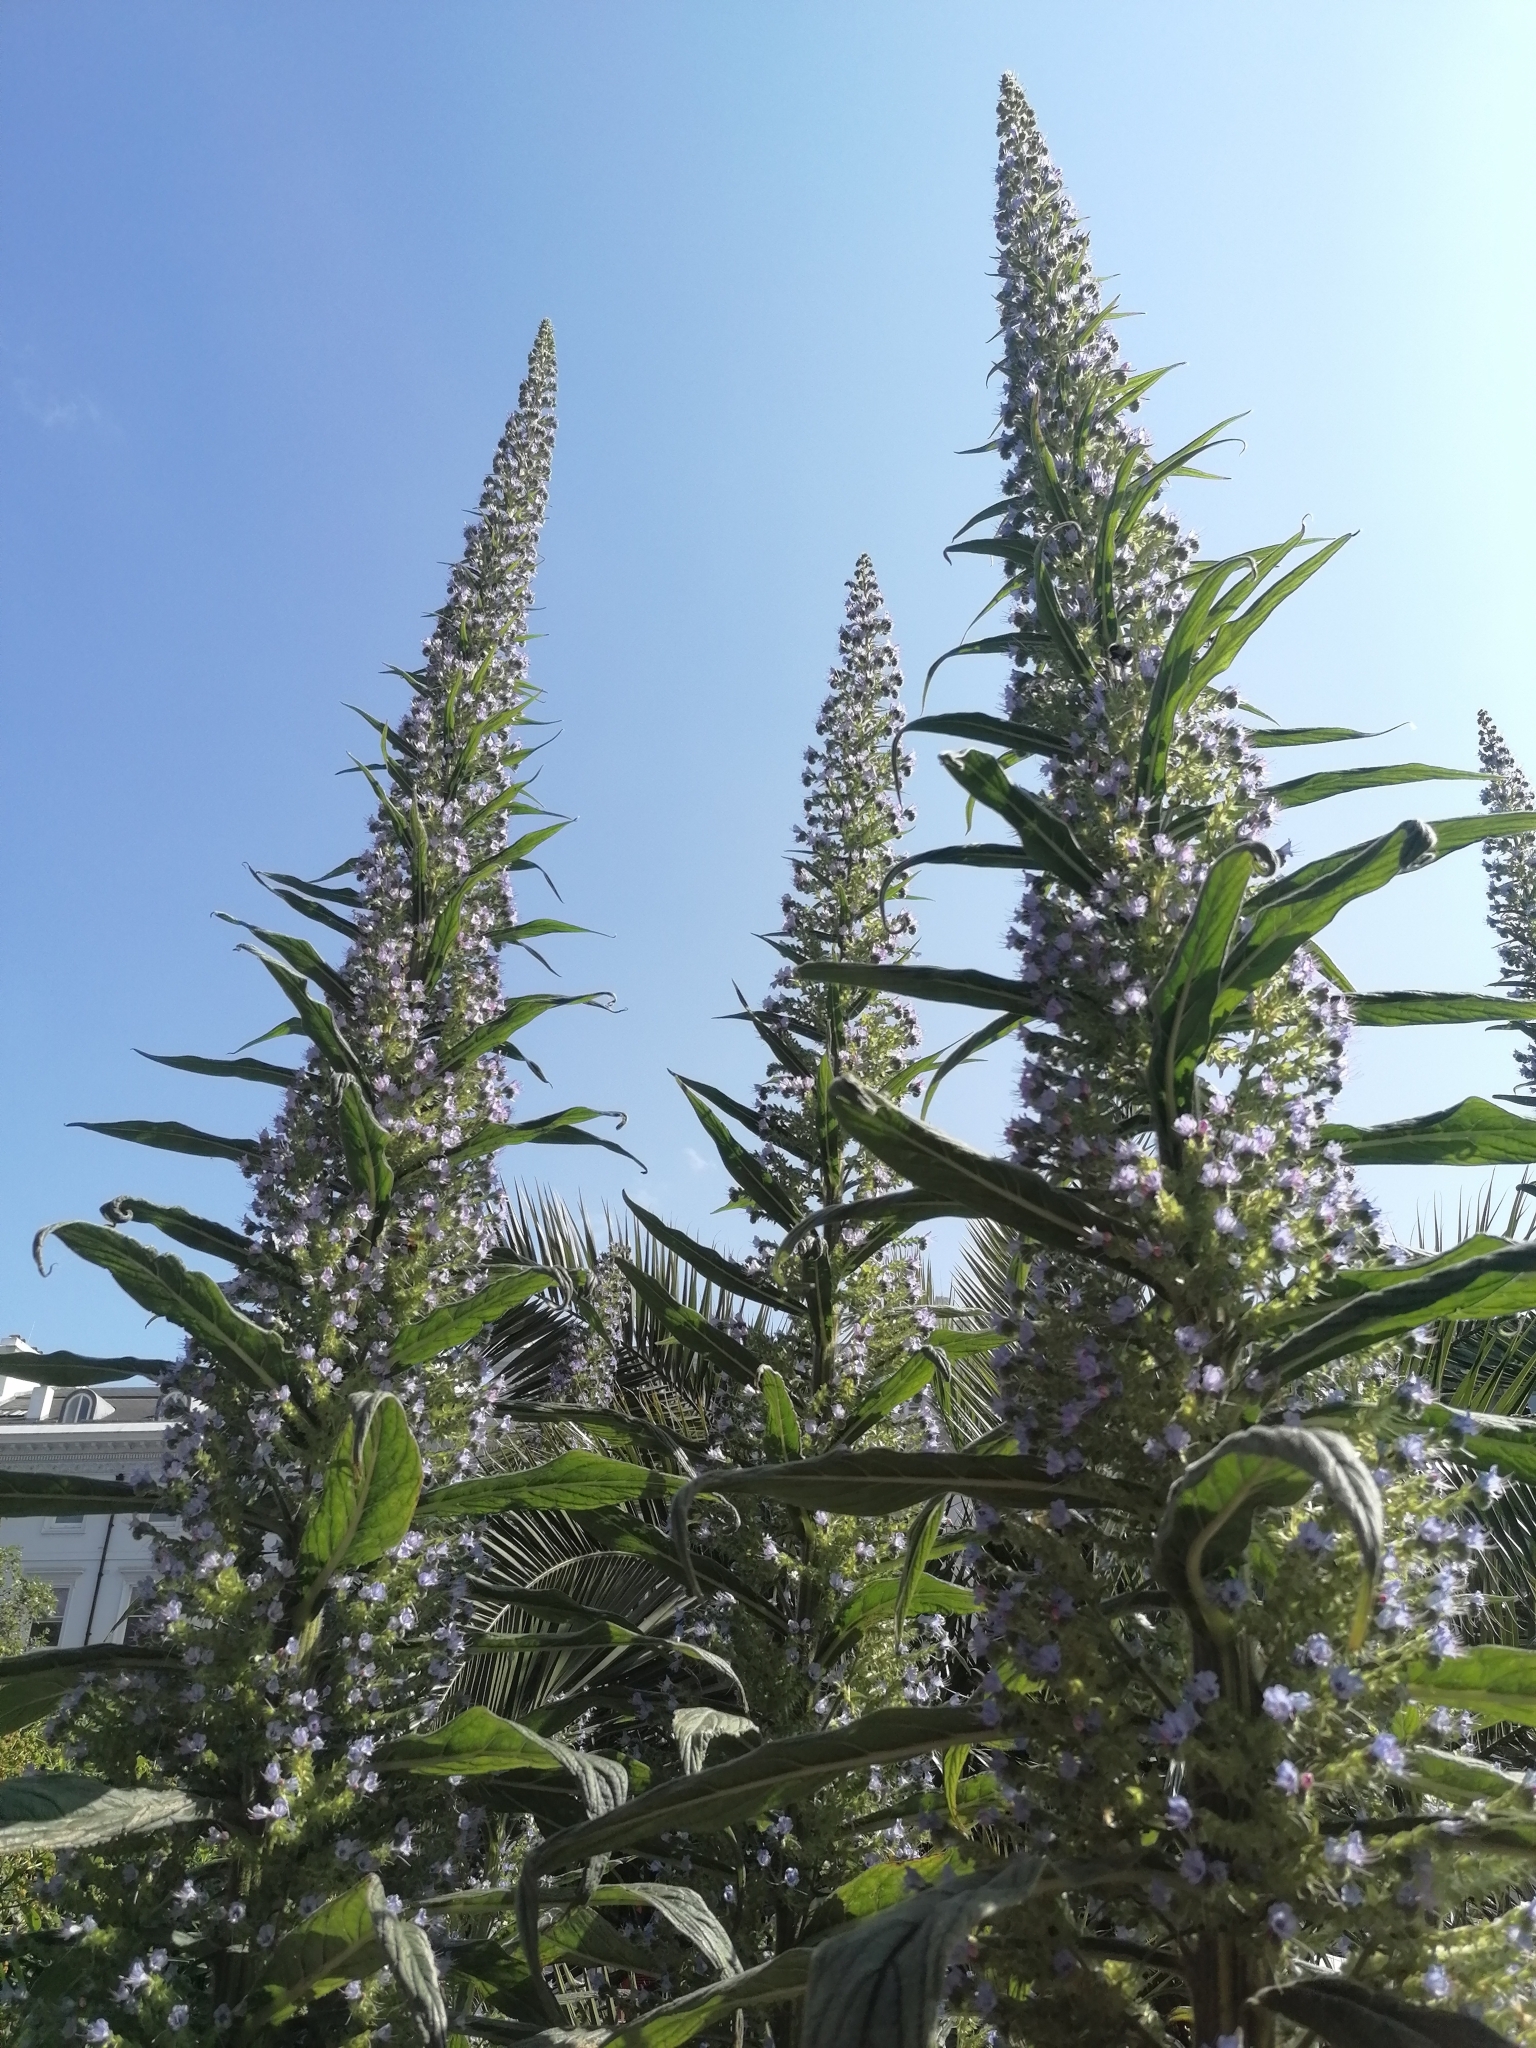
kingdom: Plantae
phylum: Tracheophyta
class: Magnoliopsida
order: Boraginales
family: Boraginaceae
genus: Echium
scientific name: Echium pininana
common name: Giant viper's-bugloss
